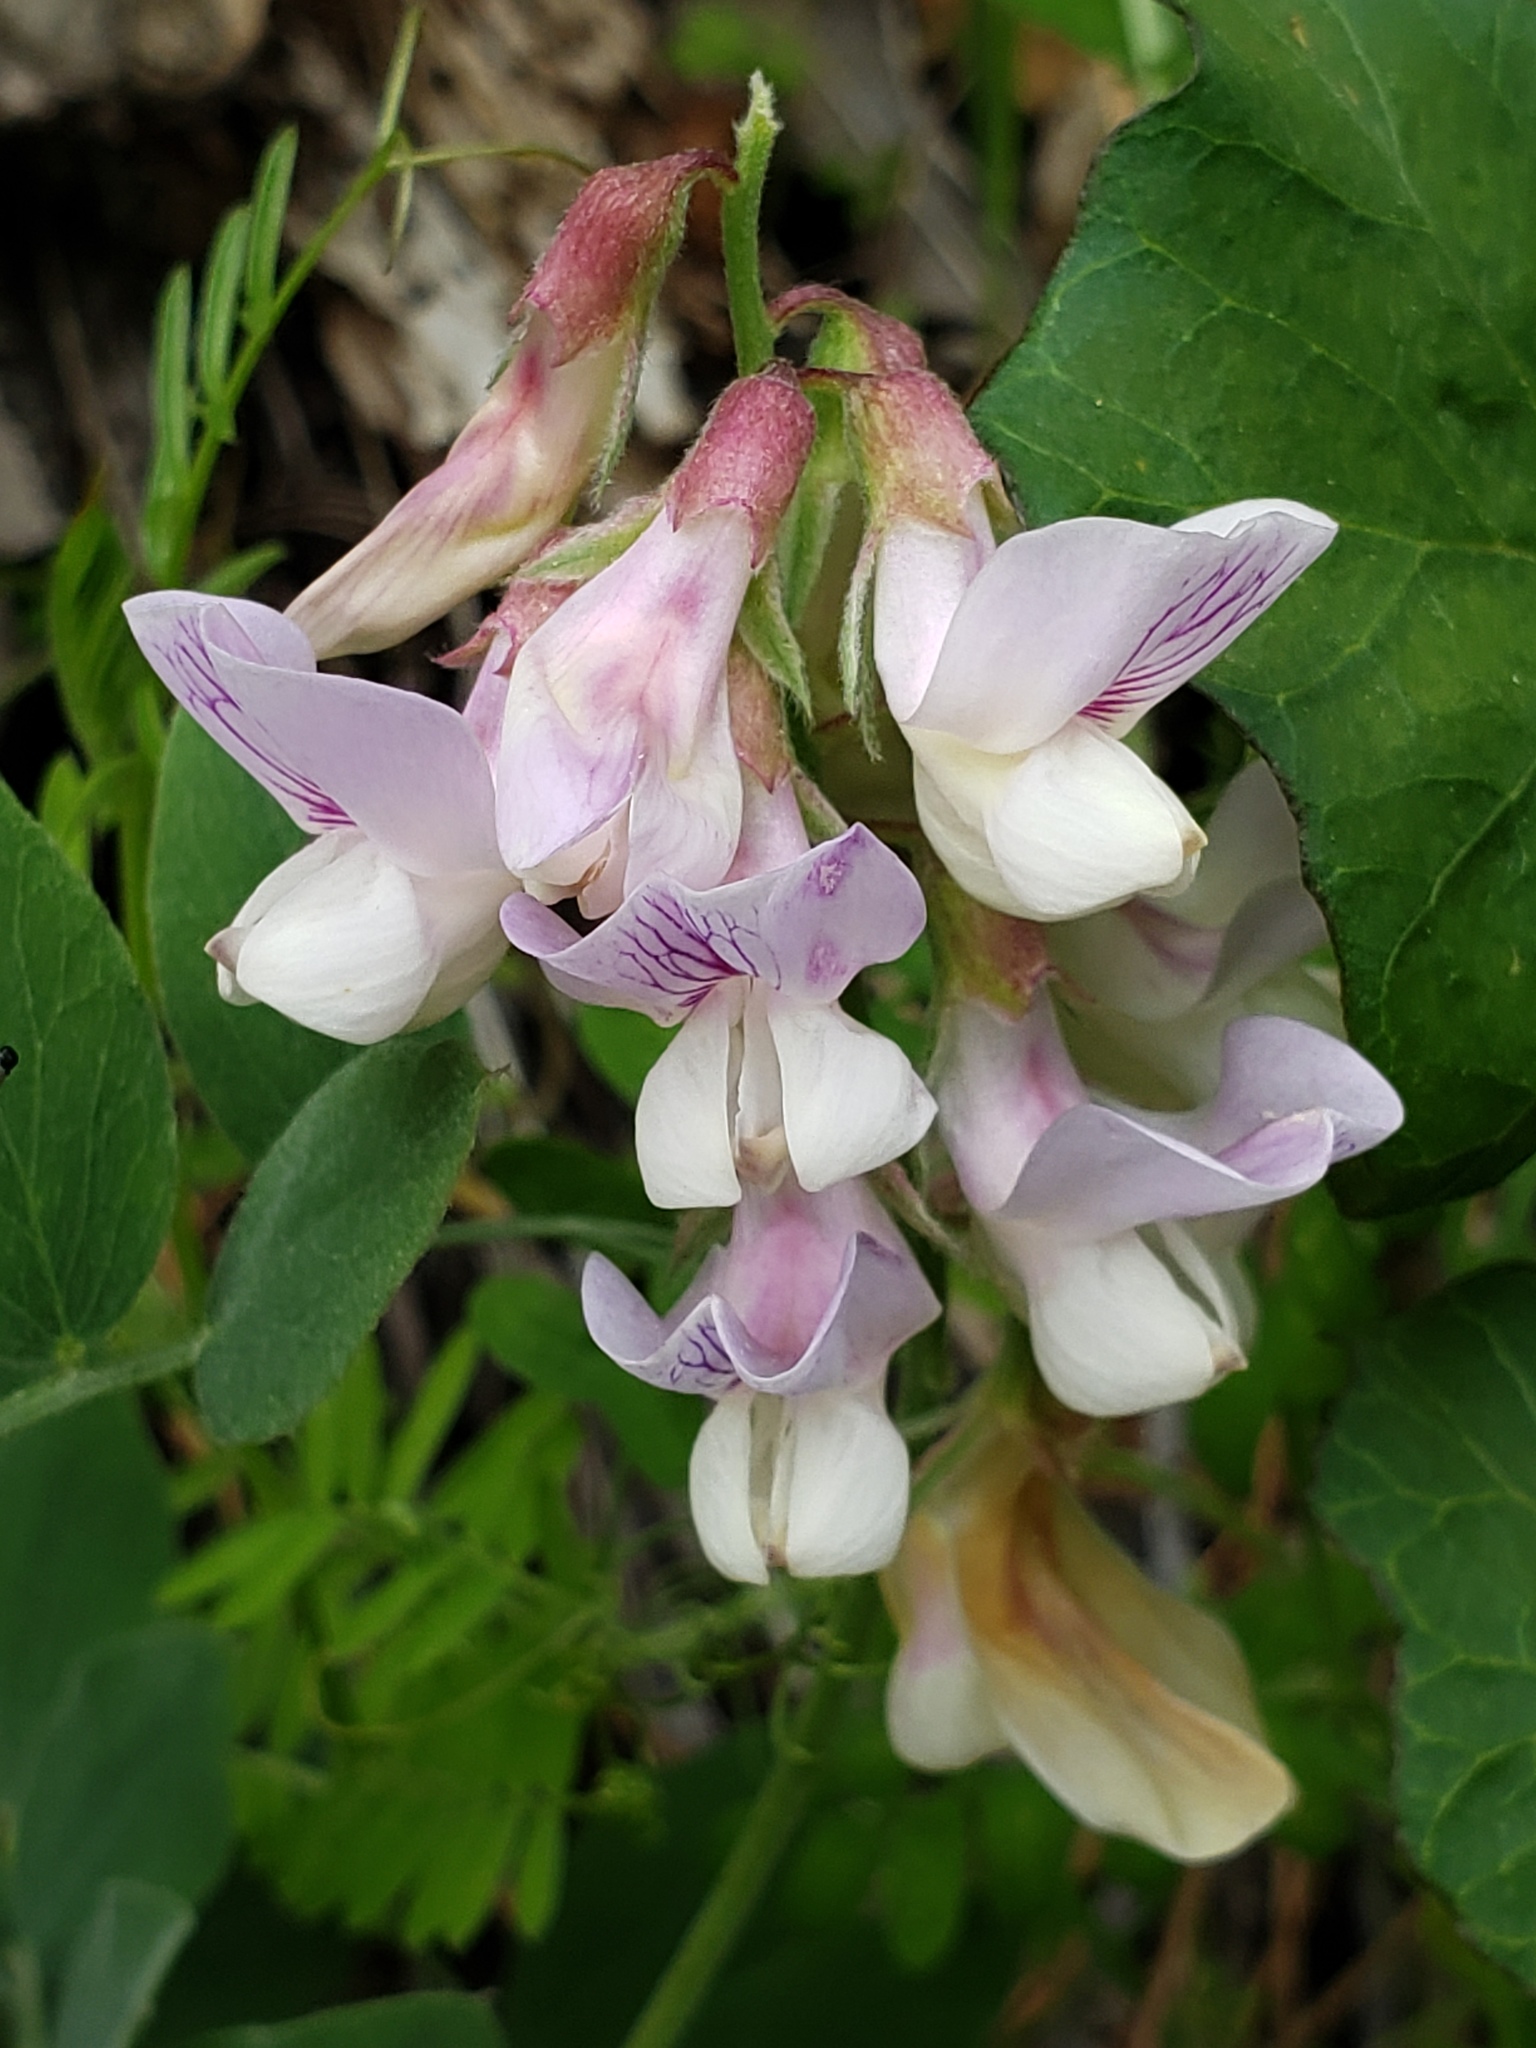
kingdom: Plantae
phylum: Tracheophyta
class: Magnoliopsida
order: Fabales
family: Fabaceae
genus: Lathyrus
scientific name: Lathyrus vestitus
